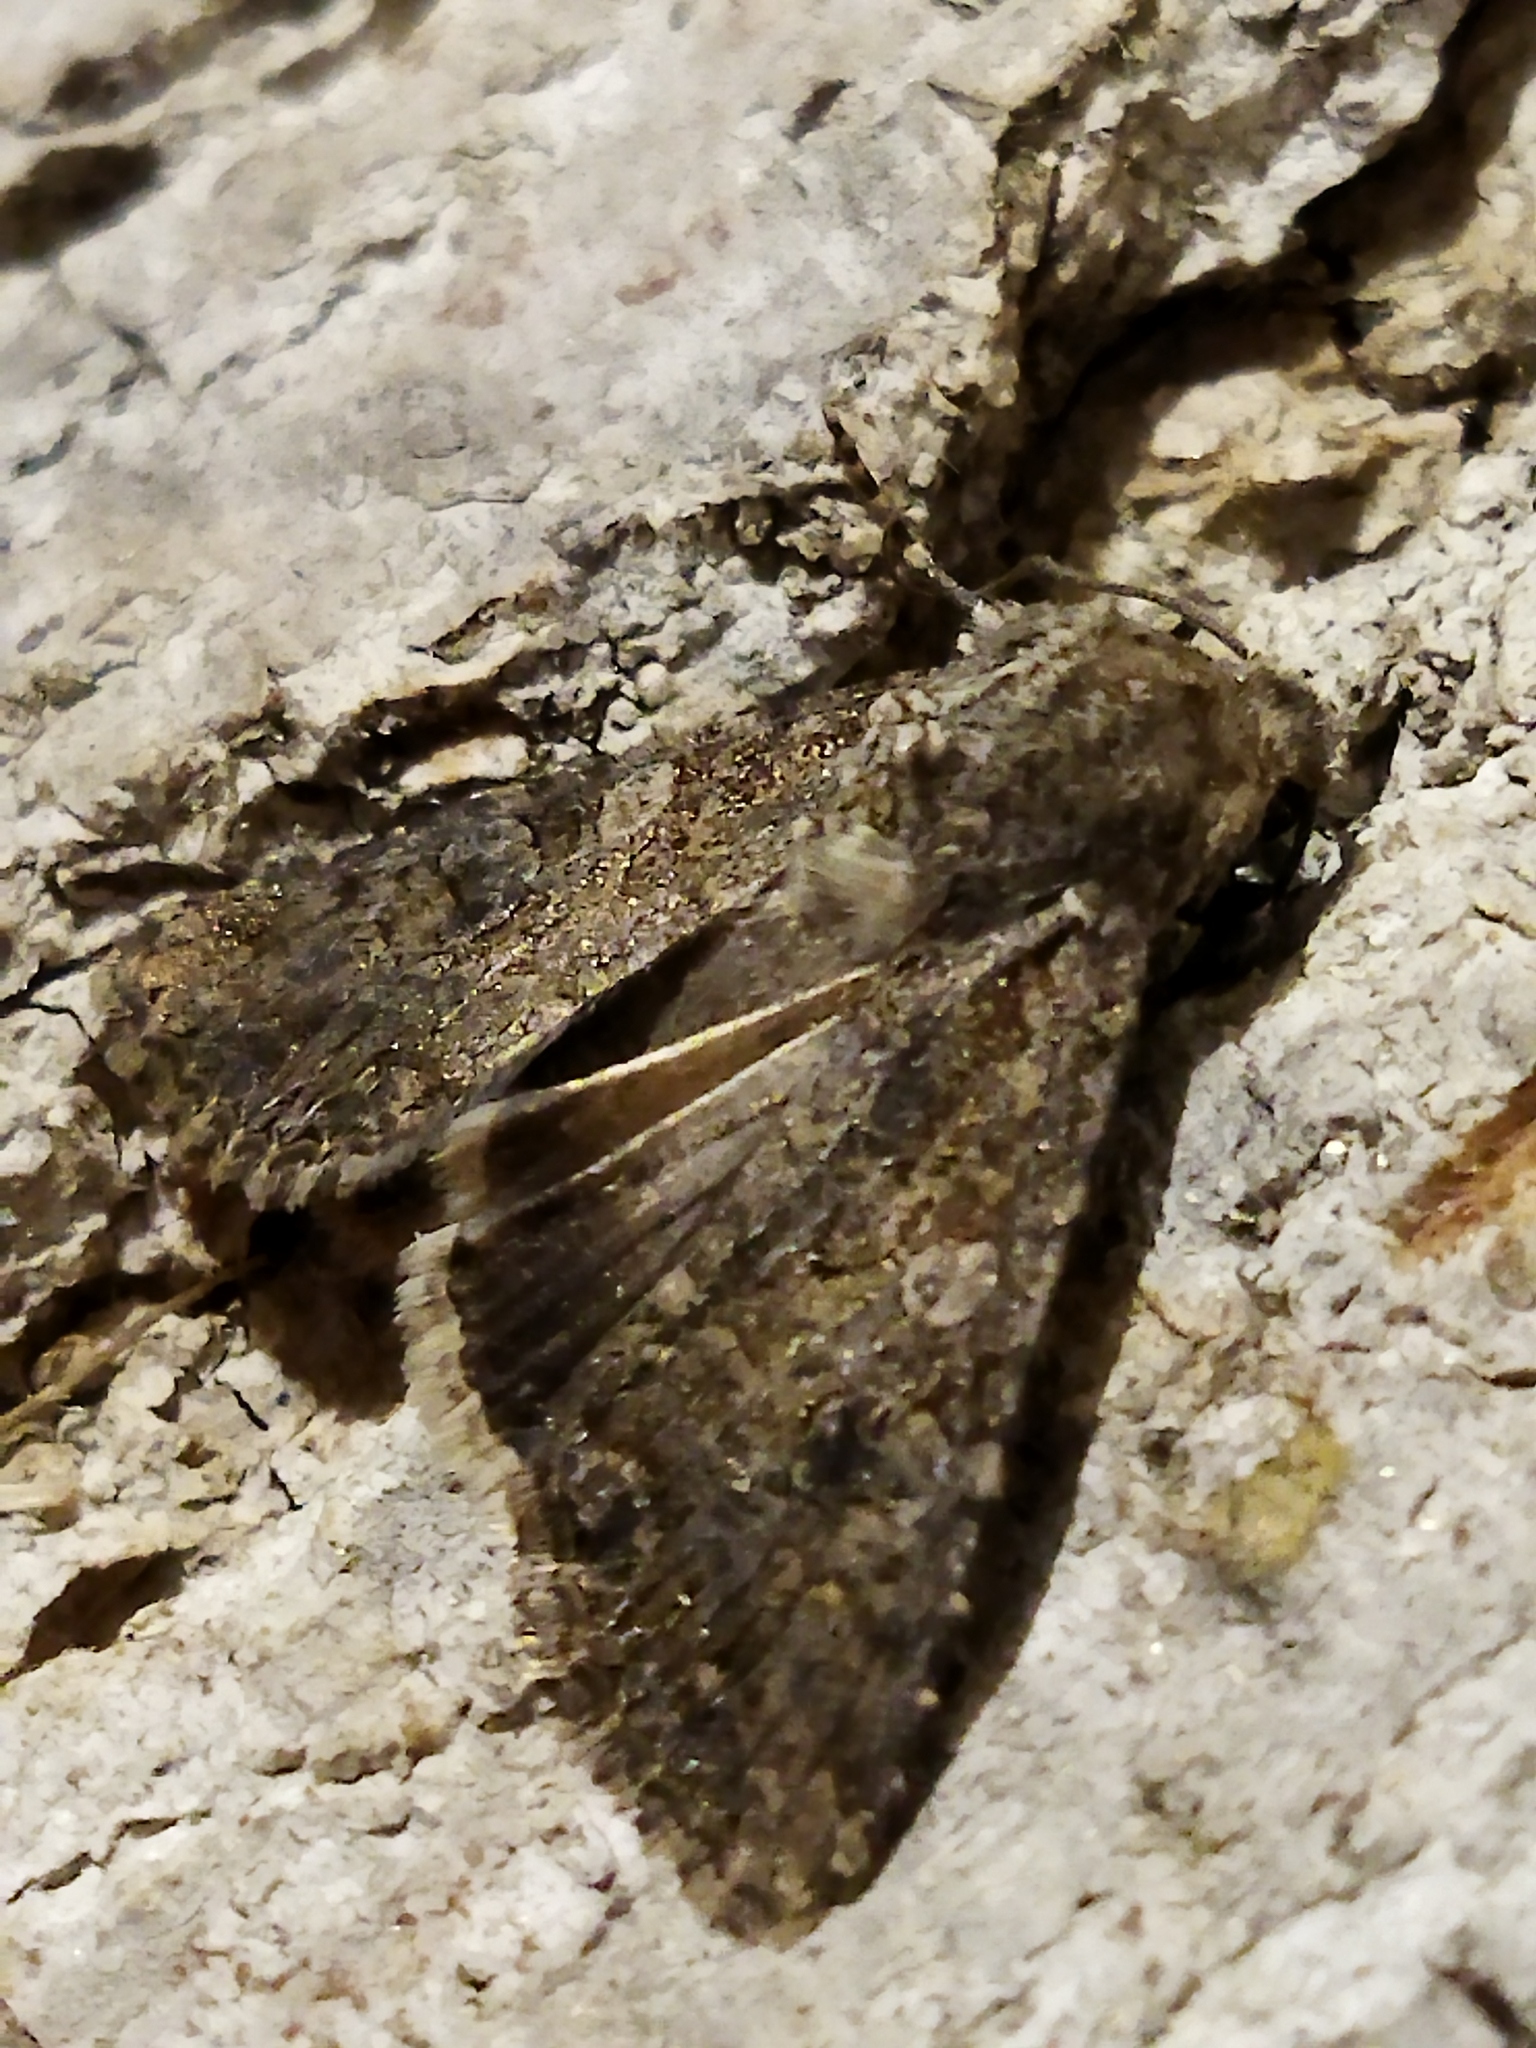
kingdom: Animalia
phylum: Arthropoda
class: Insecta
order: Lepidoptera
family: Noctuidae
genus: Anarta
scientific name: Anarta trifolii
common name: Clover cutworm moth
